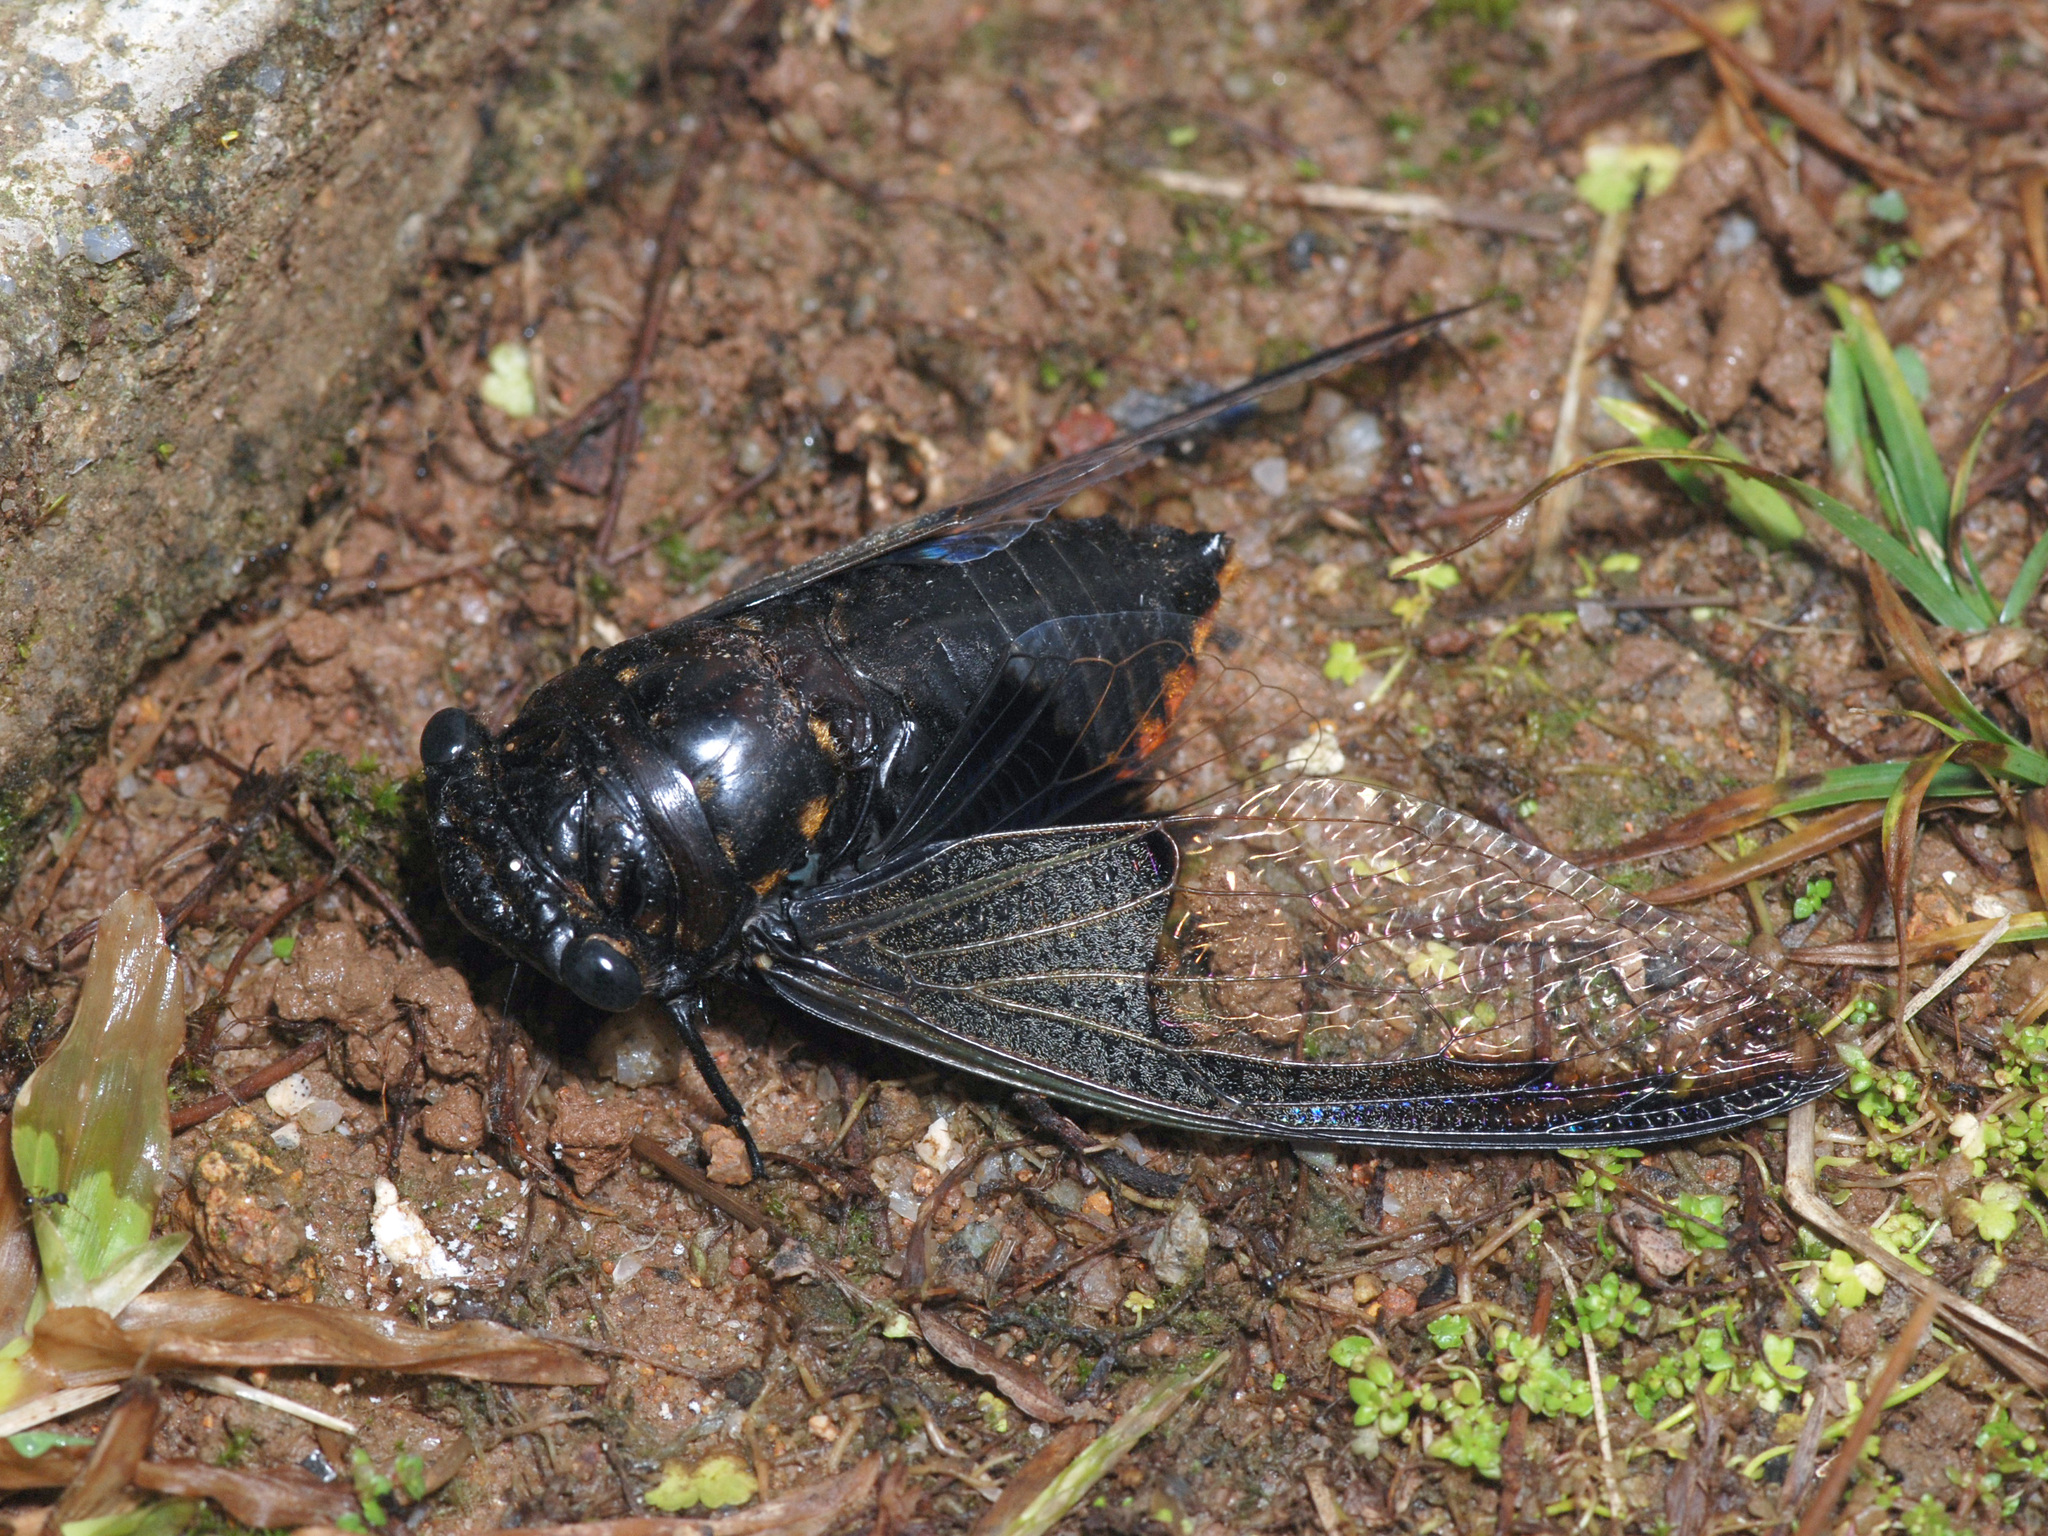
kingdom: Animalia
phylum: Arthropoda
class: Insecta
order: Hemiptera
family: Cicadidae
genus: Cryptotympana
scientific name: Cryptotympana aquila
